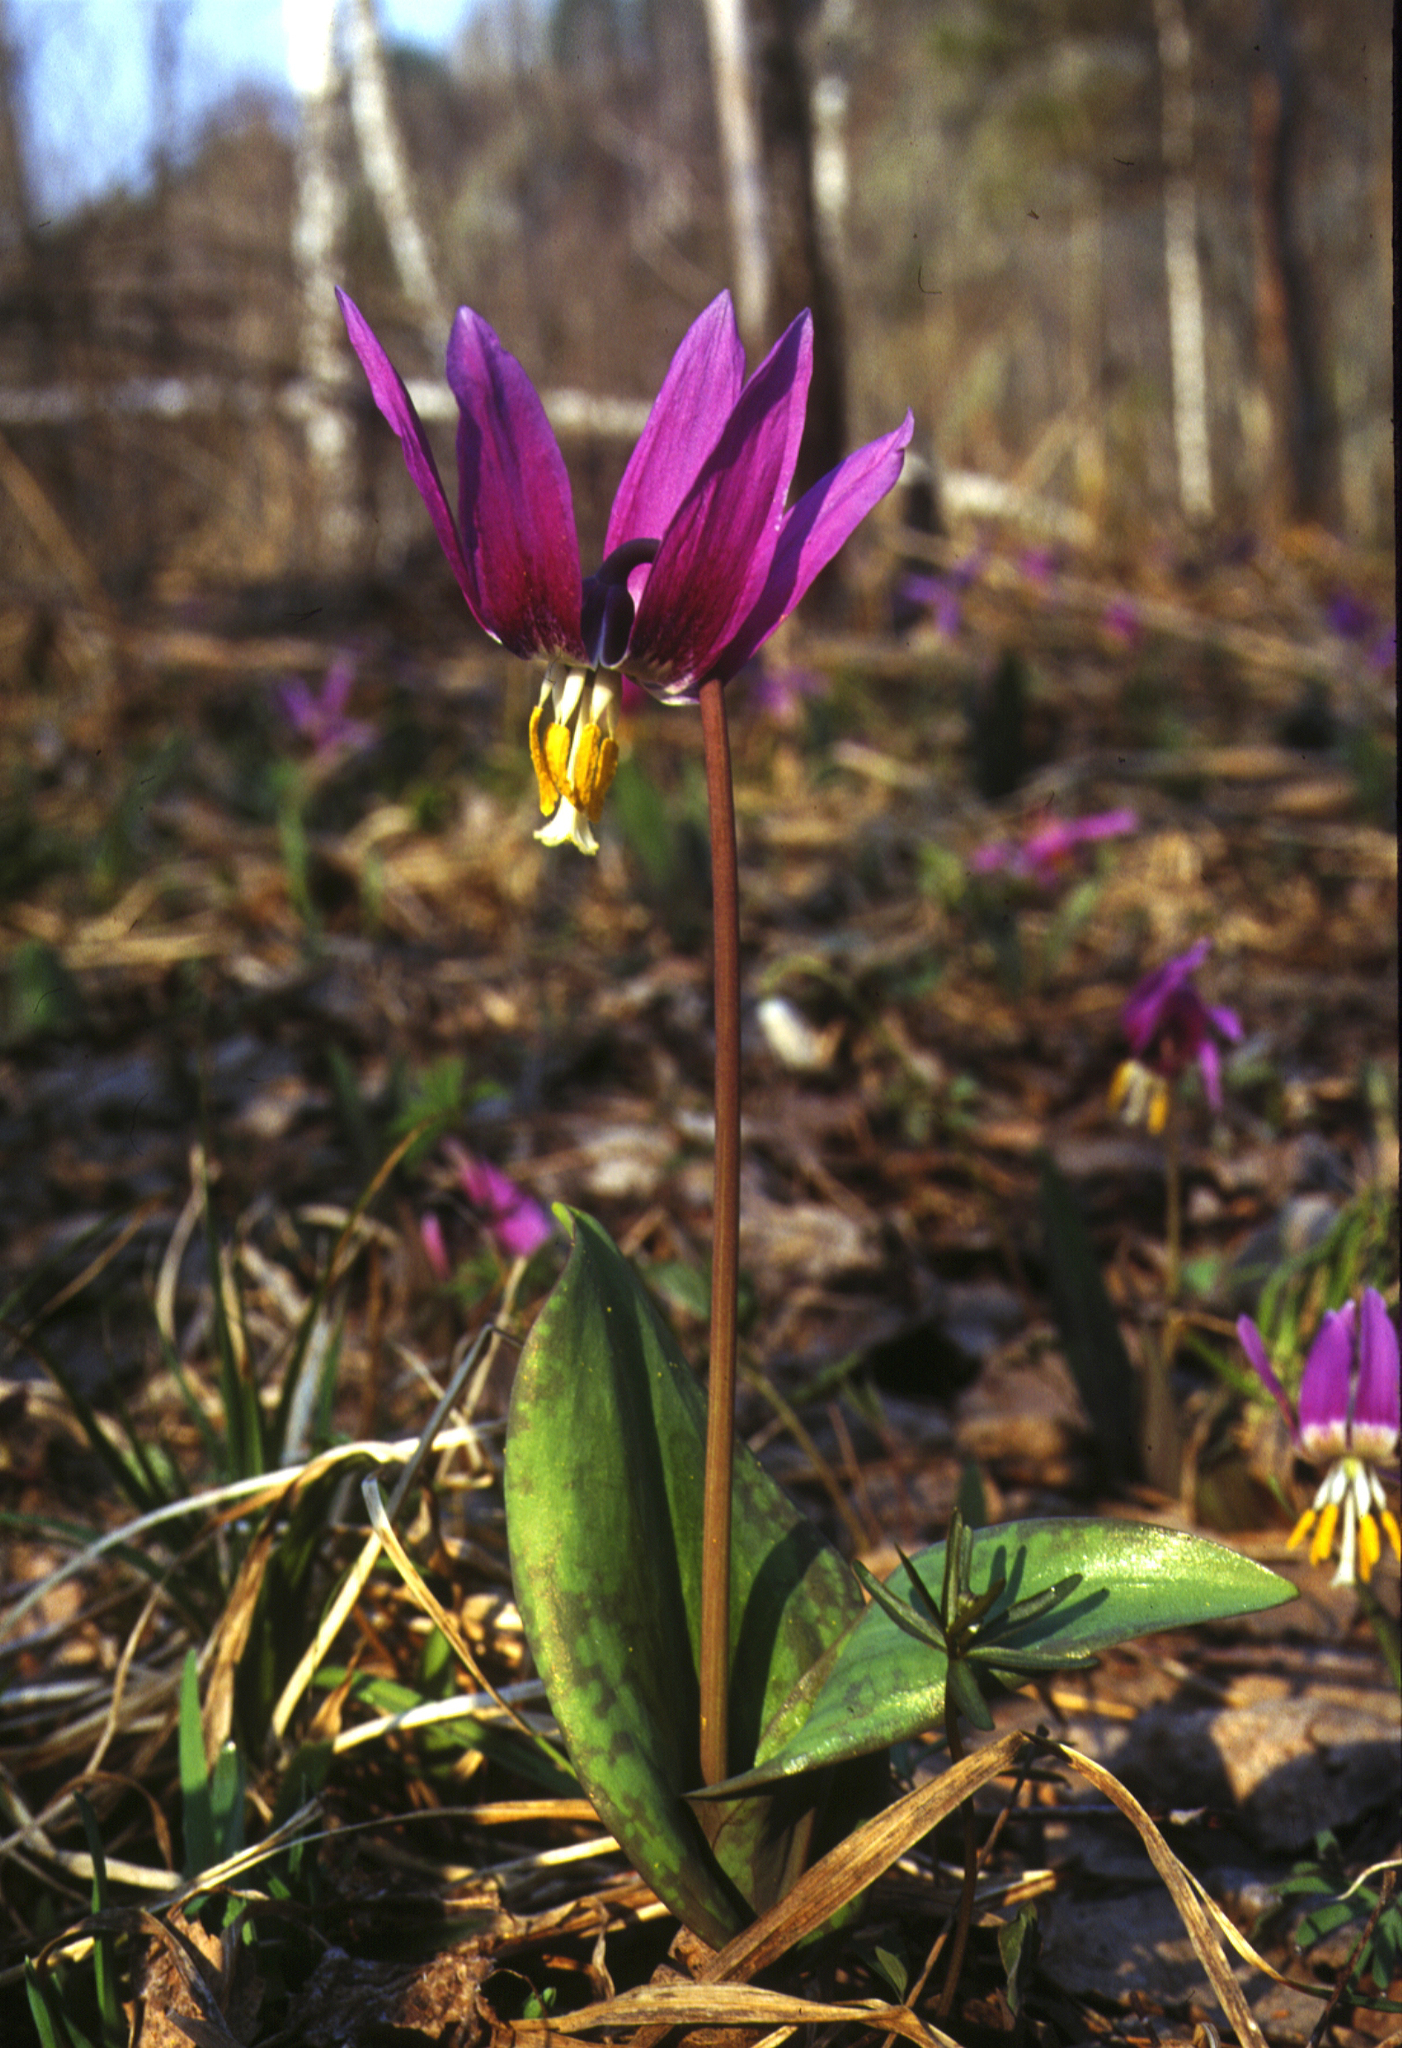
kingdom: Plantae
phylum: Tracheophyta
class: Liliopsida
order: Liliales
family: Liliaceae
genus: Erythronium
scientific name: Erythronium sibiricum
